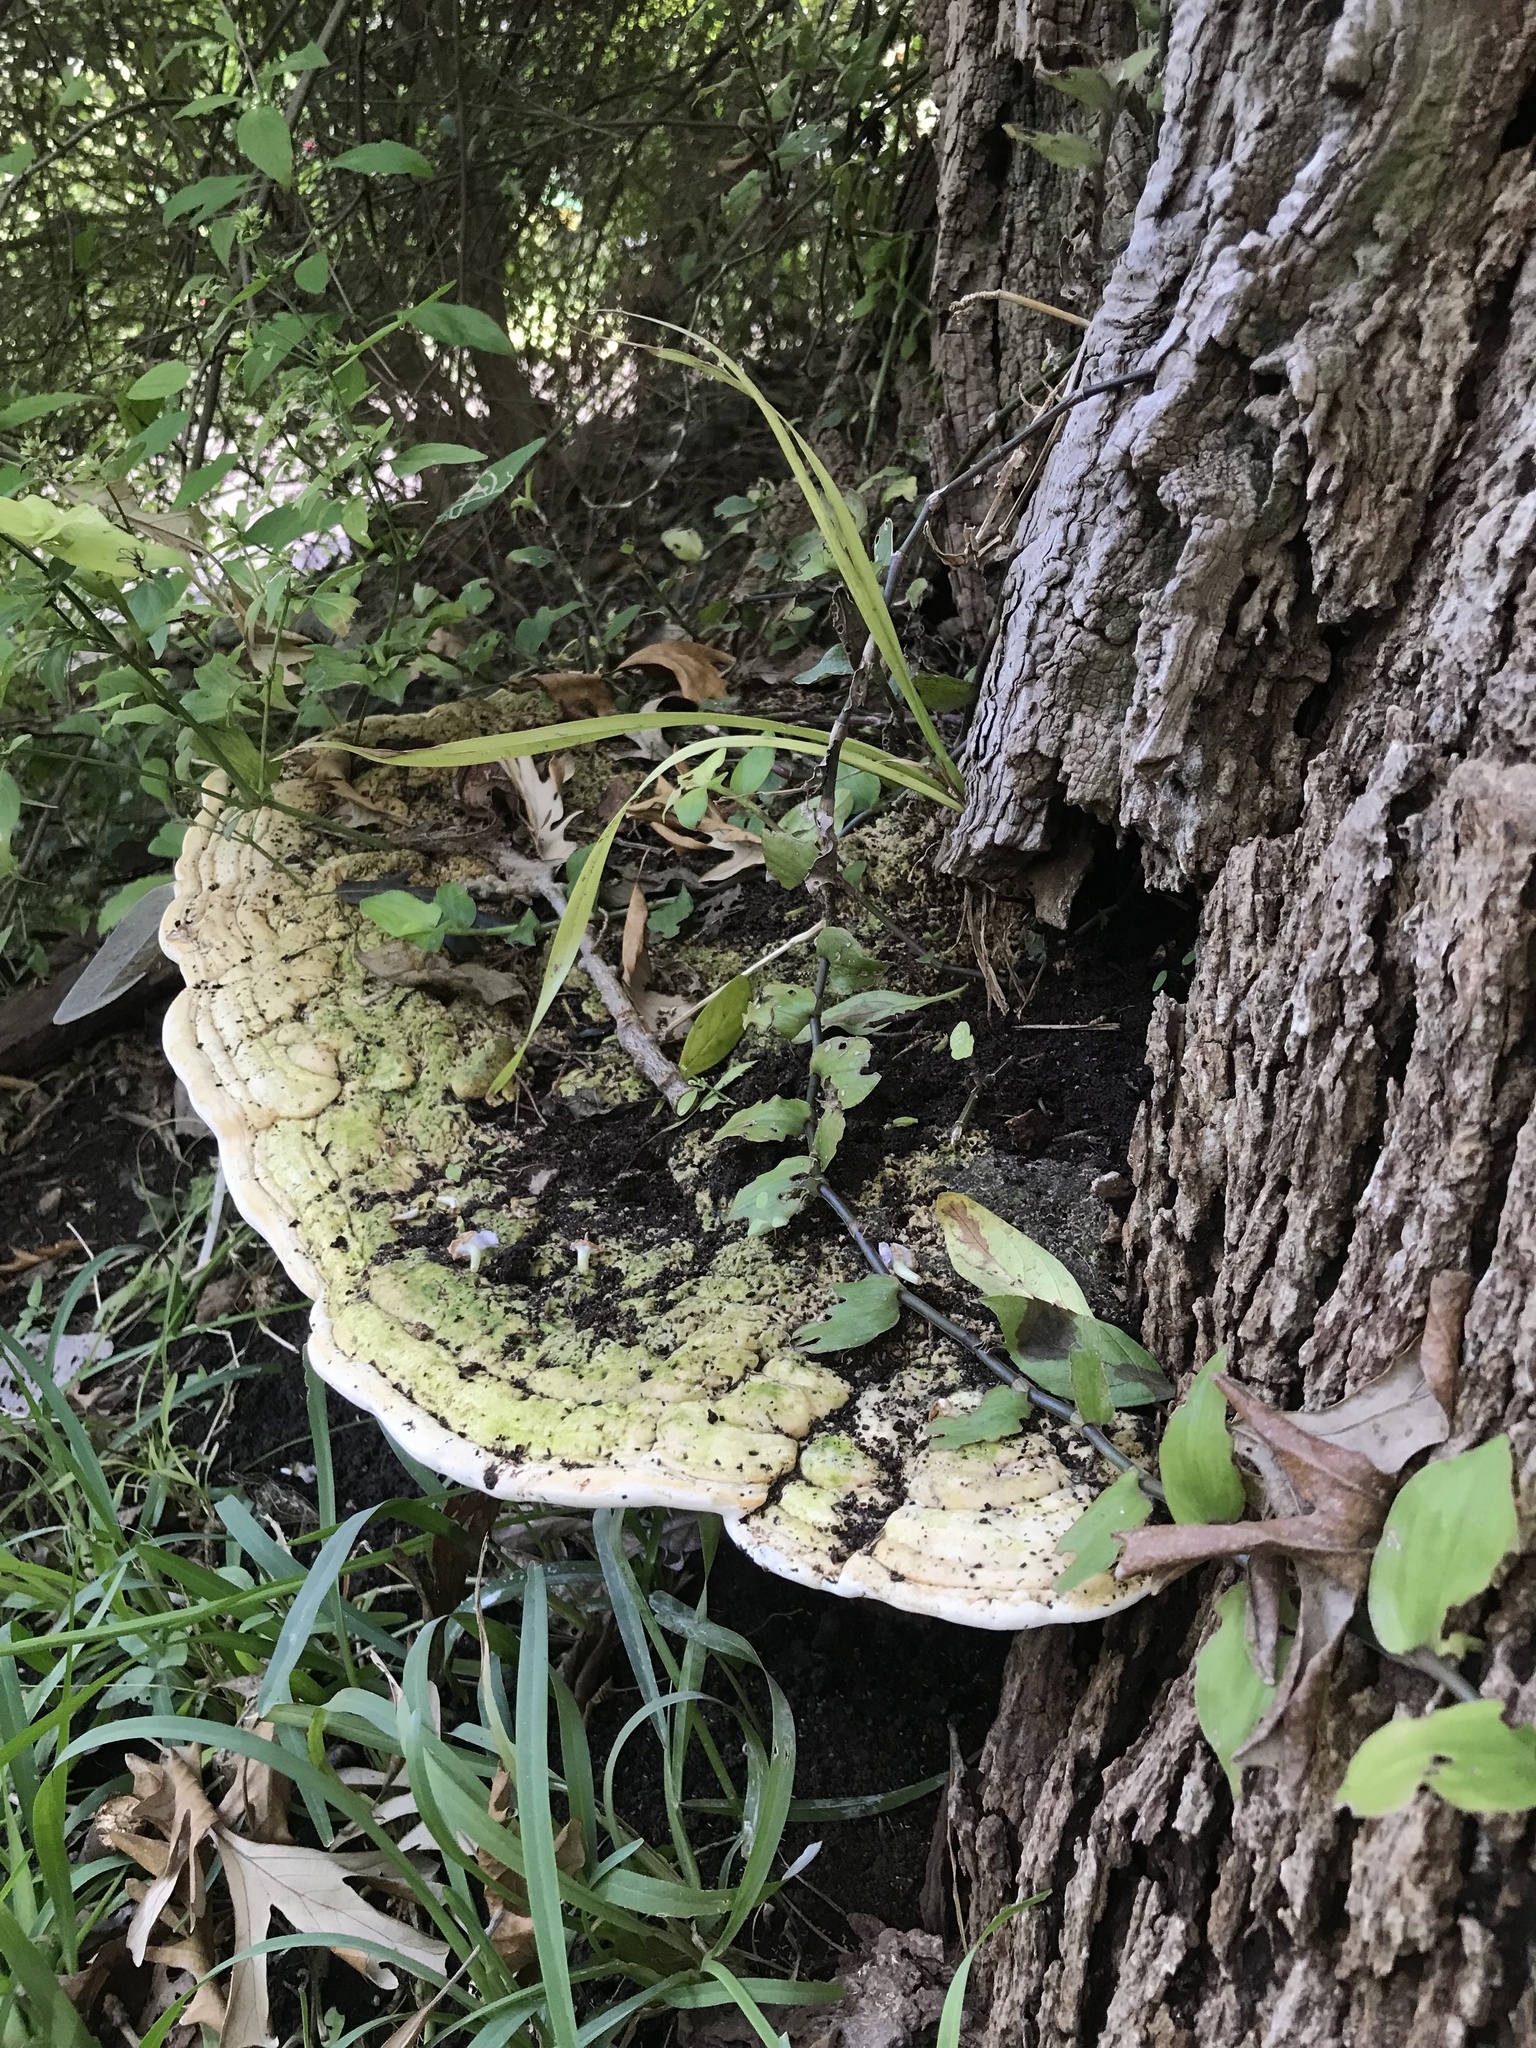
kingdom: Fungi
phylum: Basidiomycota
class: Agaricomycetes
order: Polyporales
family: Polyporaceae
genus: Trametes
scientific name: Trametes gibbosa
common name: Lumpy bracket
